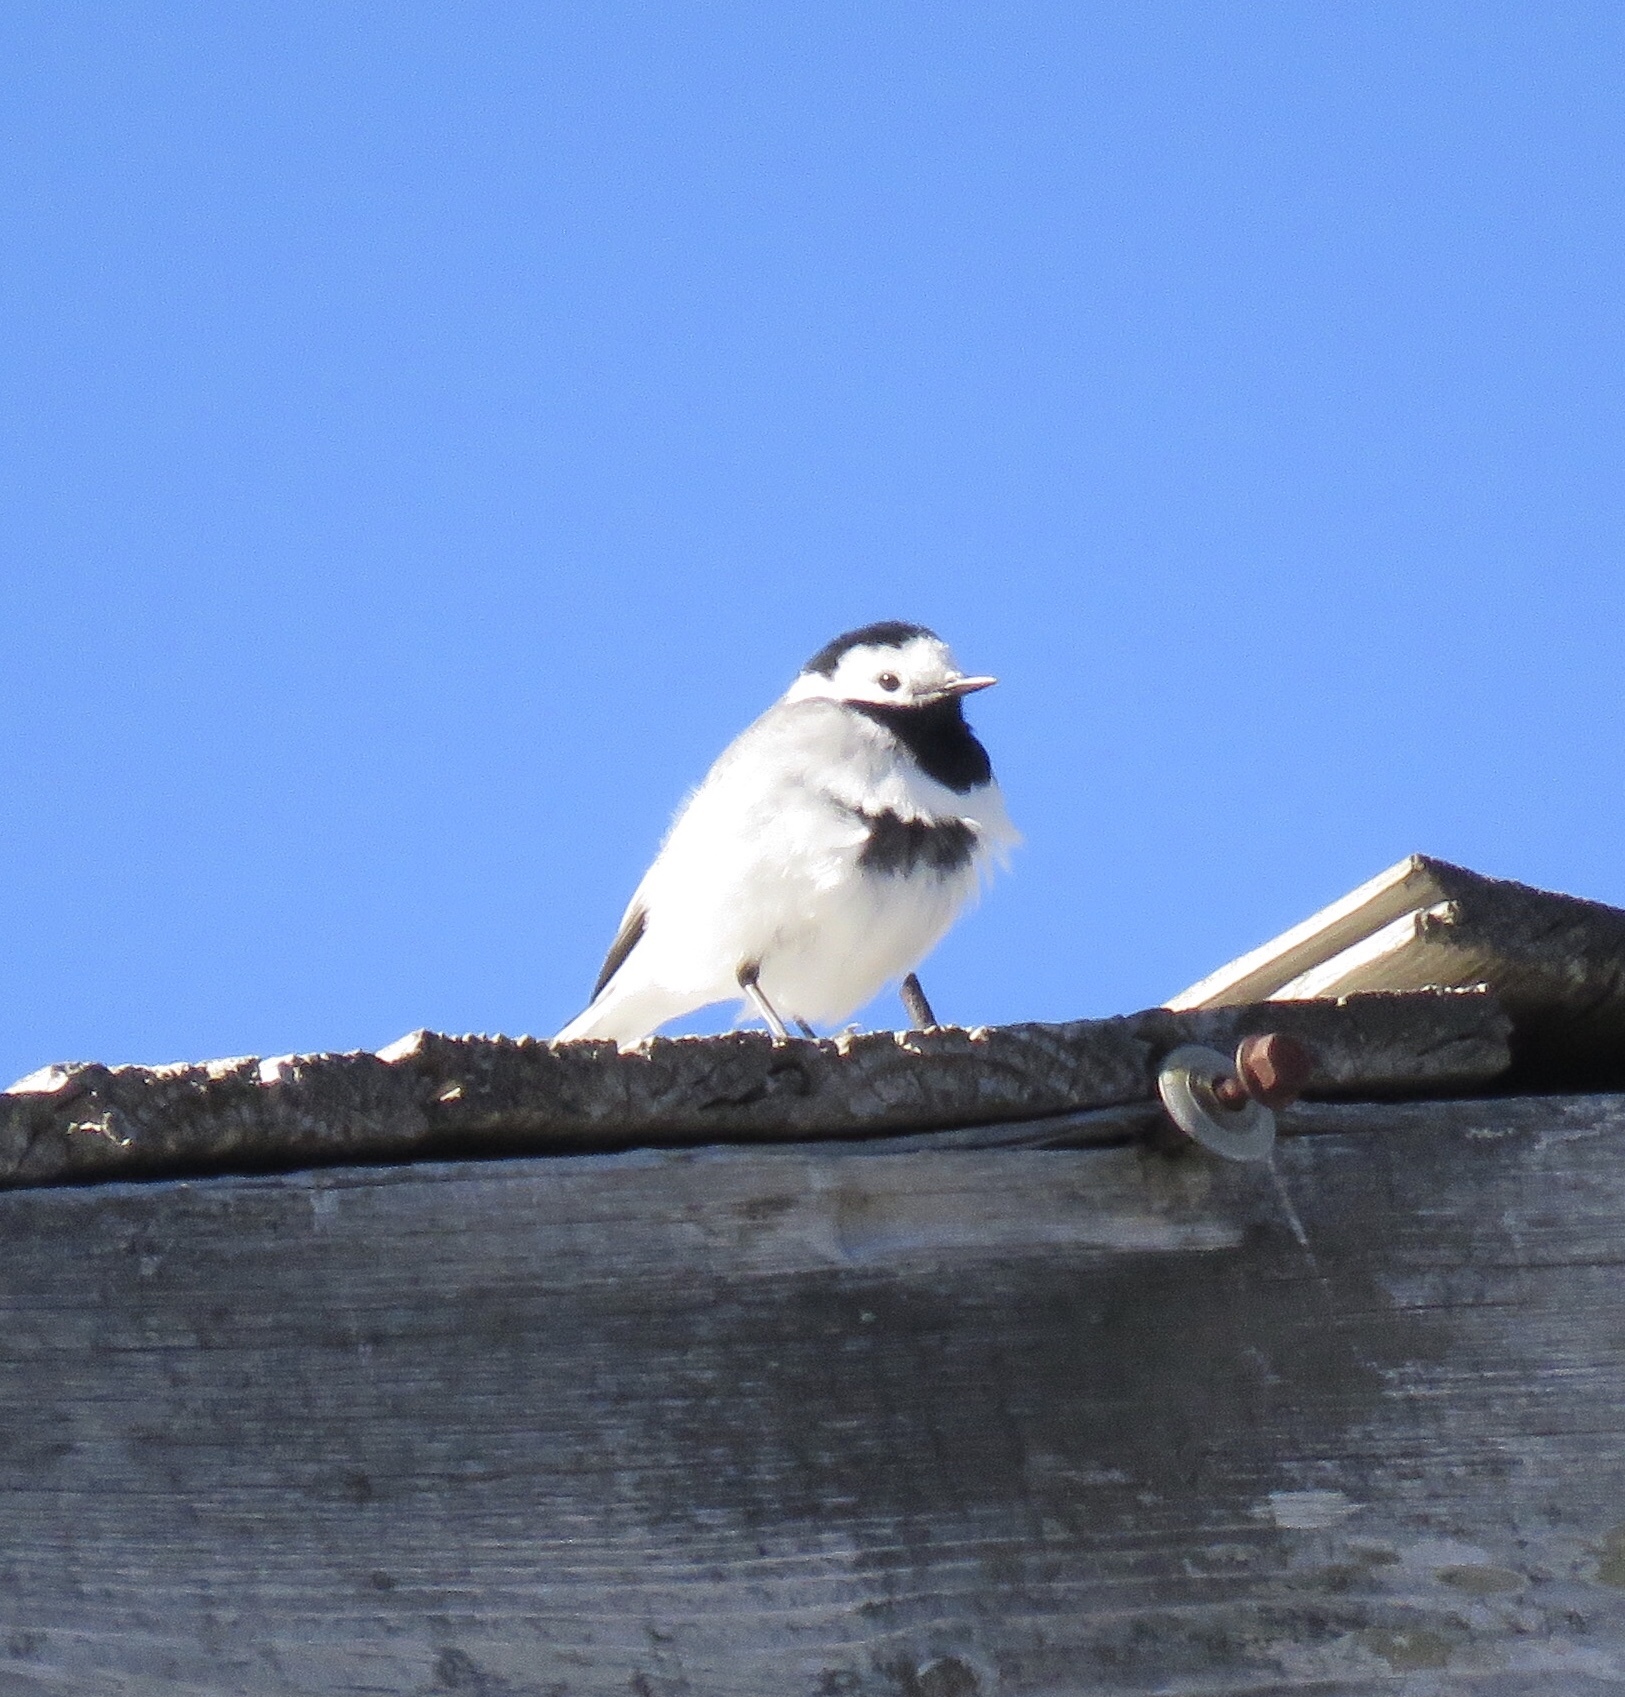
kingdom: Animalia
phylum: Chordata
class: Aves
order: Passeriformes
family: Motacillidae
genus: Motacilla
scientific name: Motacilla alba
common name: White wagtail
